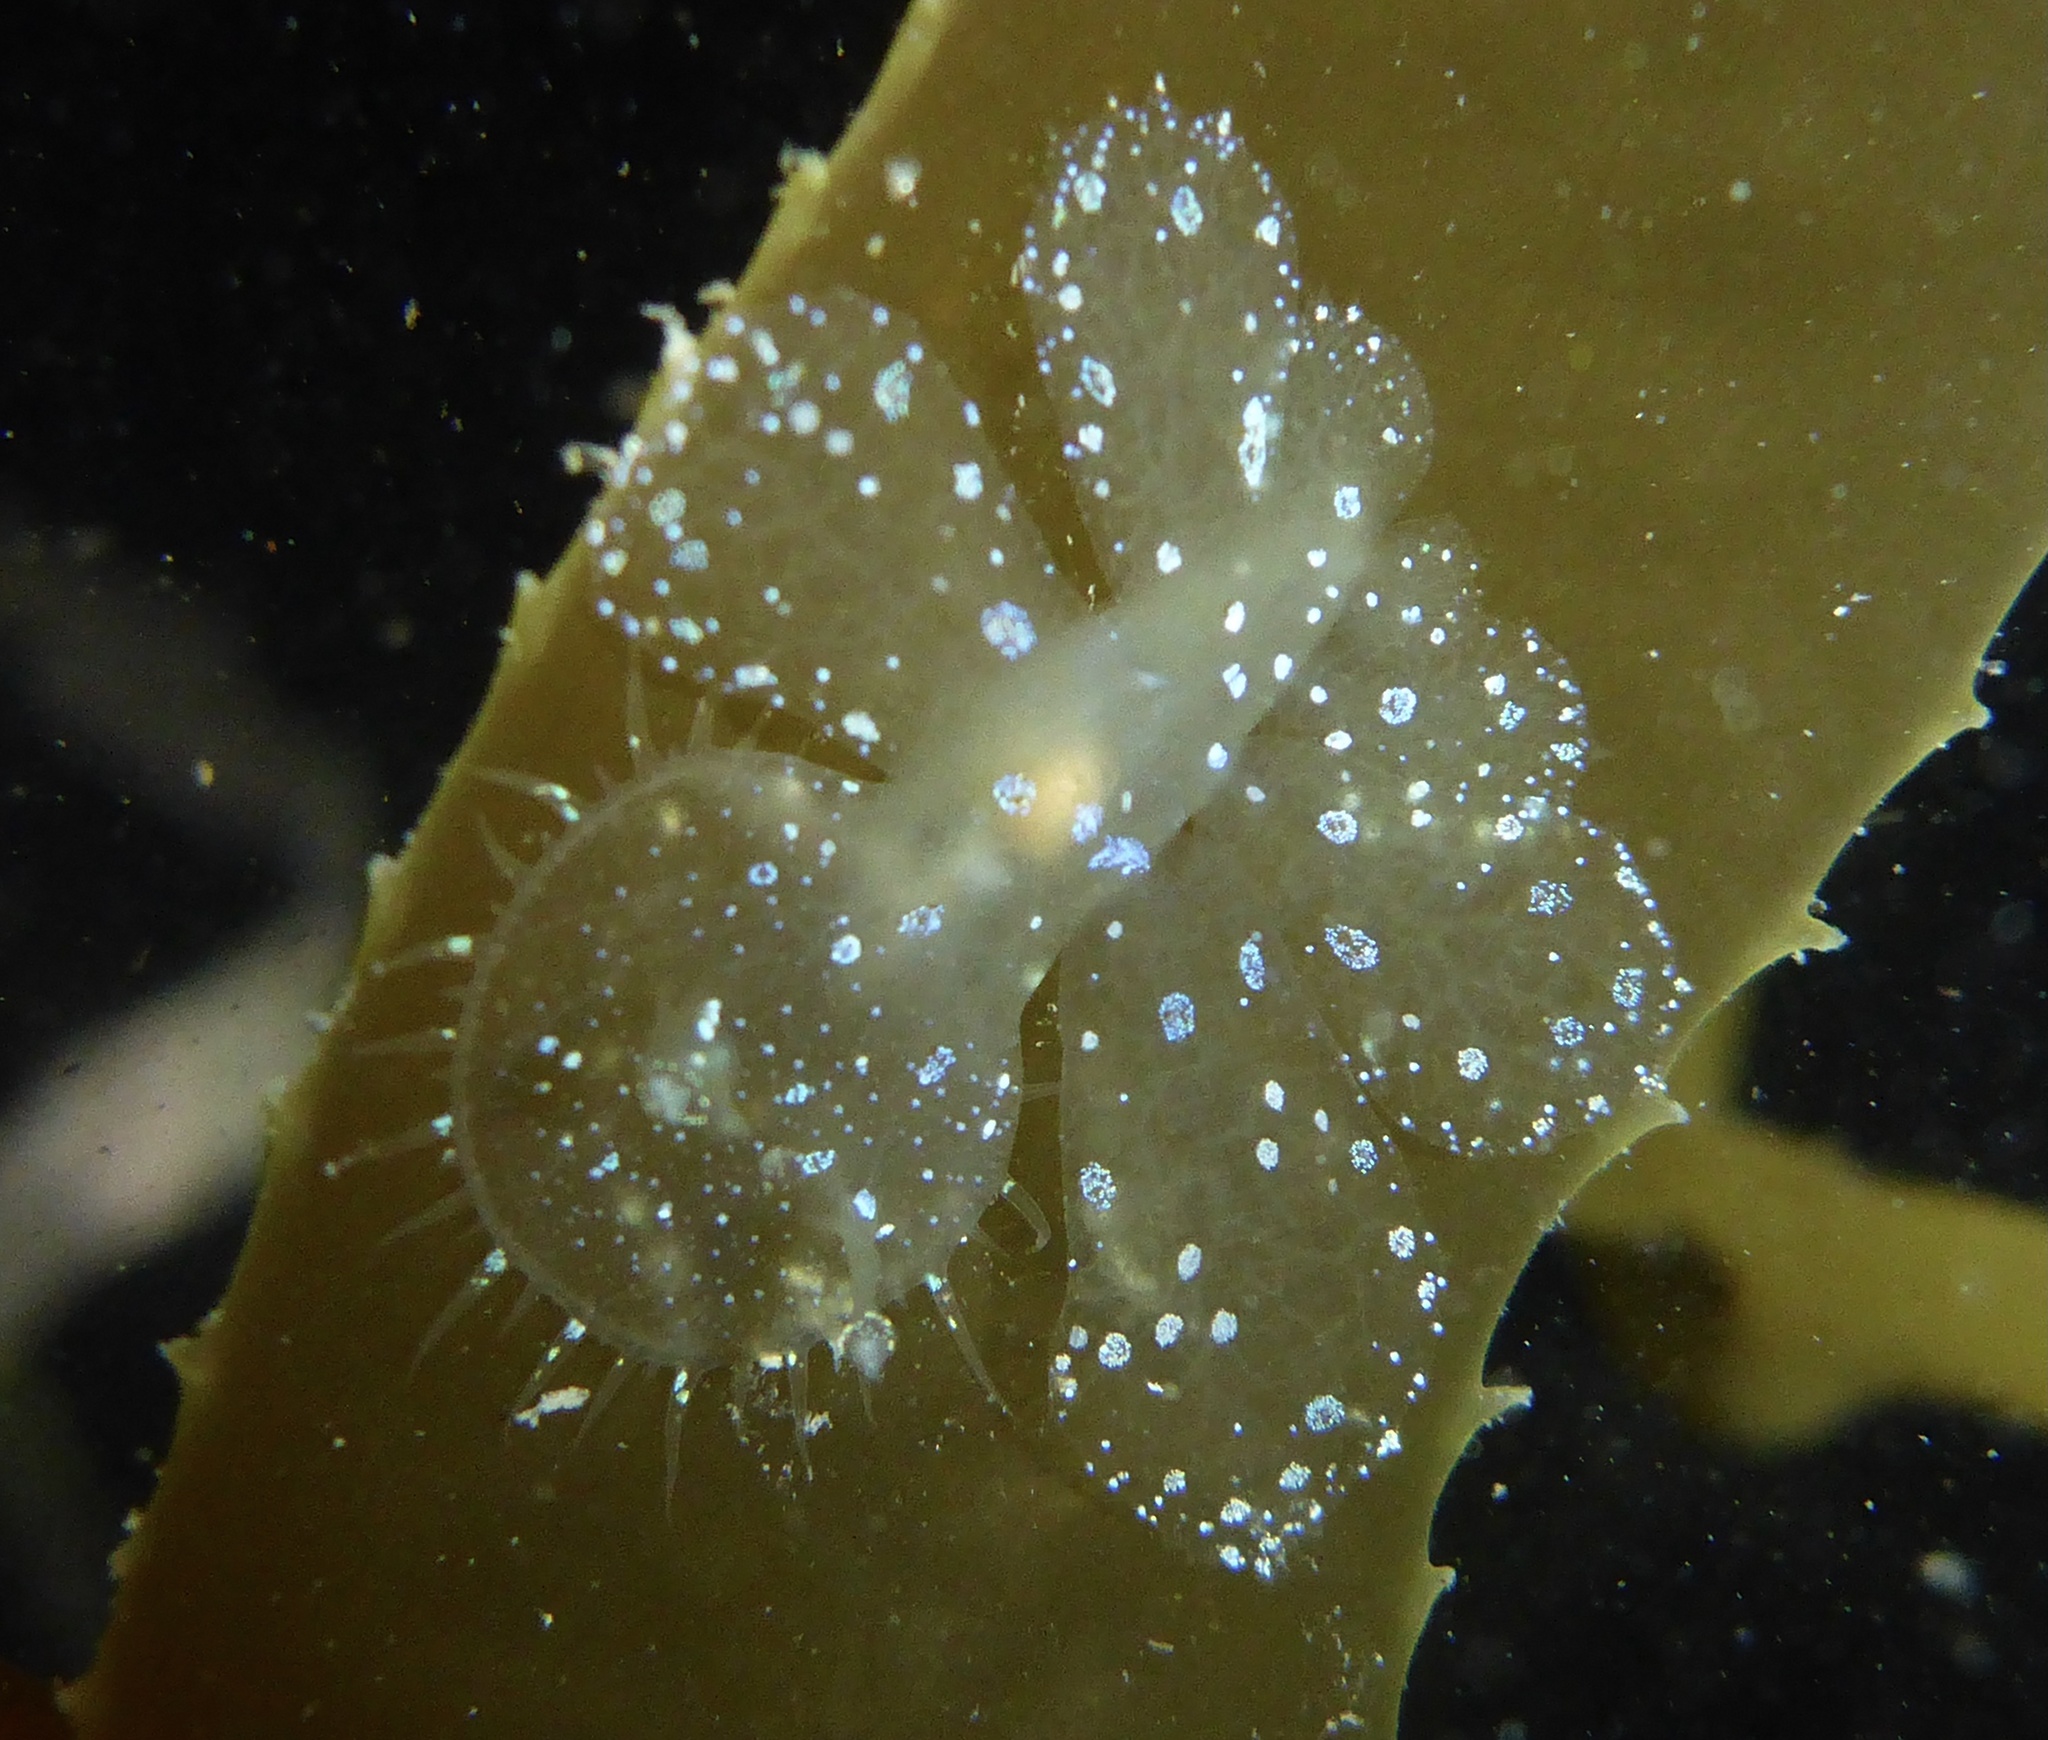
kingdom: Animalia
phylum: Mollusca
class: Gastropoda
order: Nudibranchia
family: Tethydidae
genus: Melibe
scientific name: Melibe leonina
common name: Lion nudibranch
